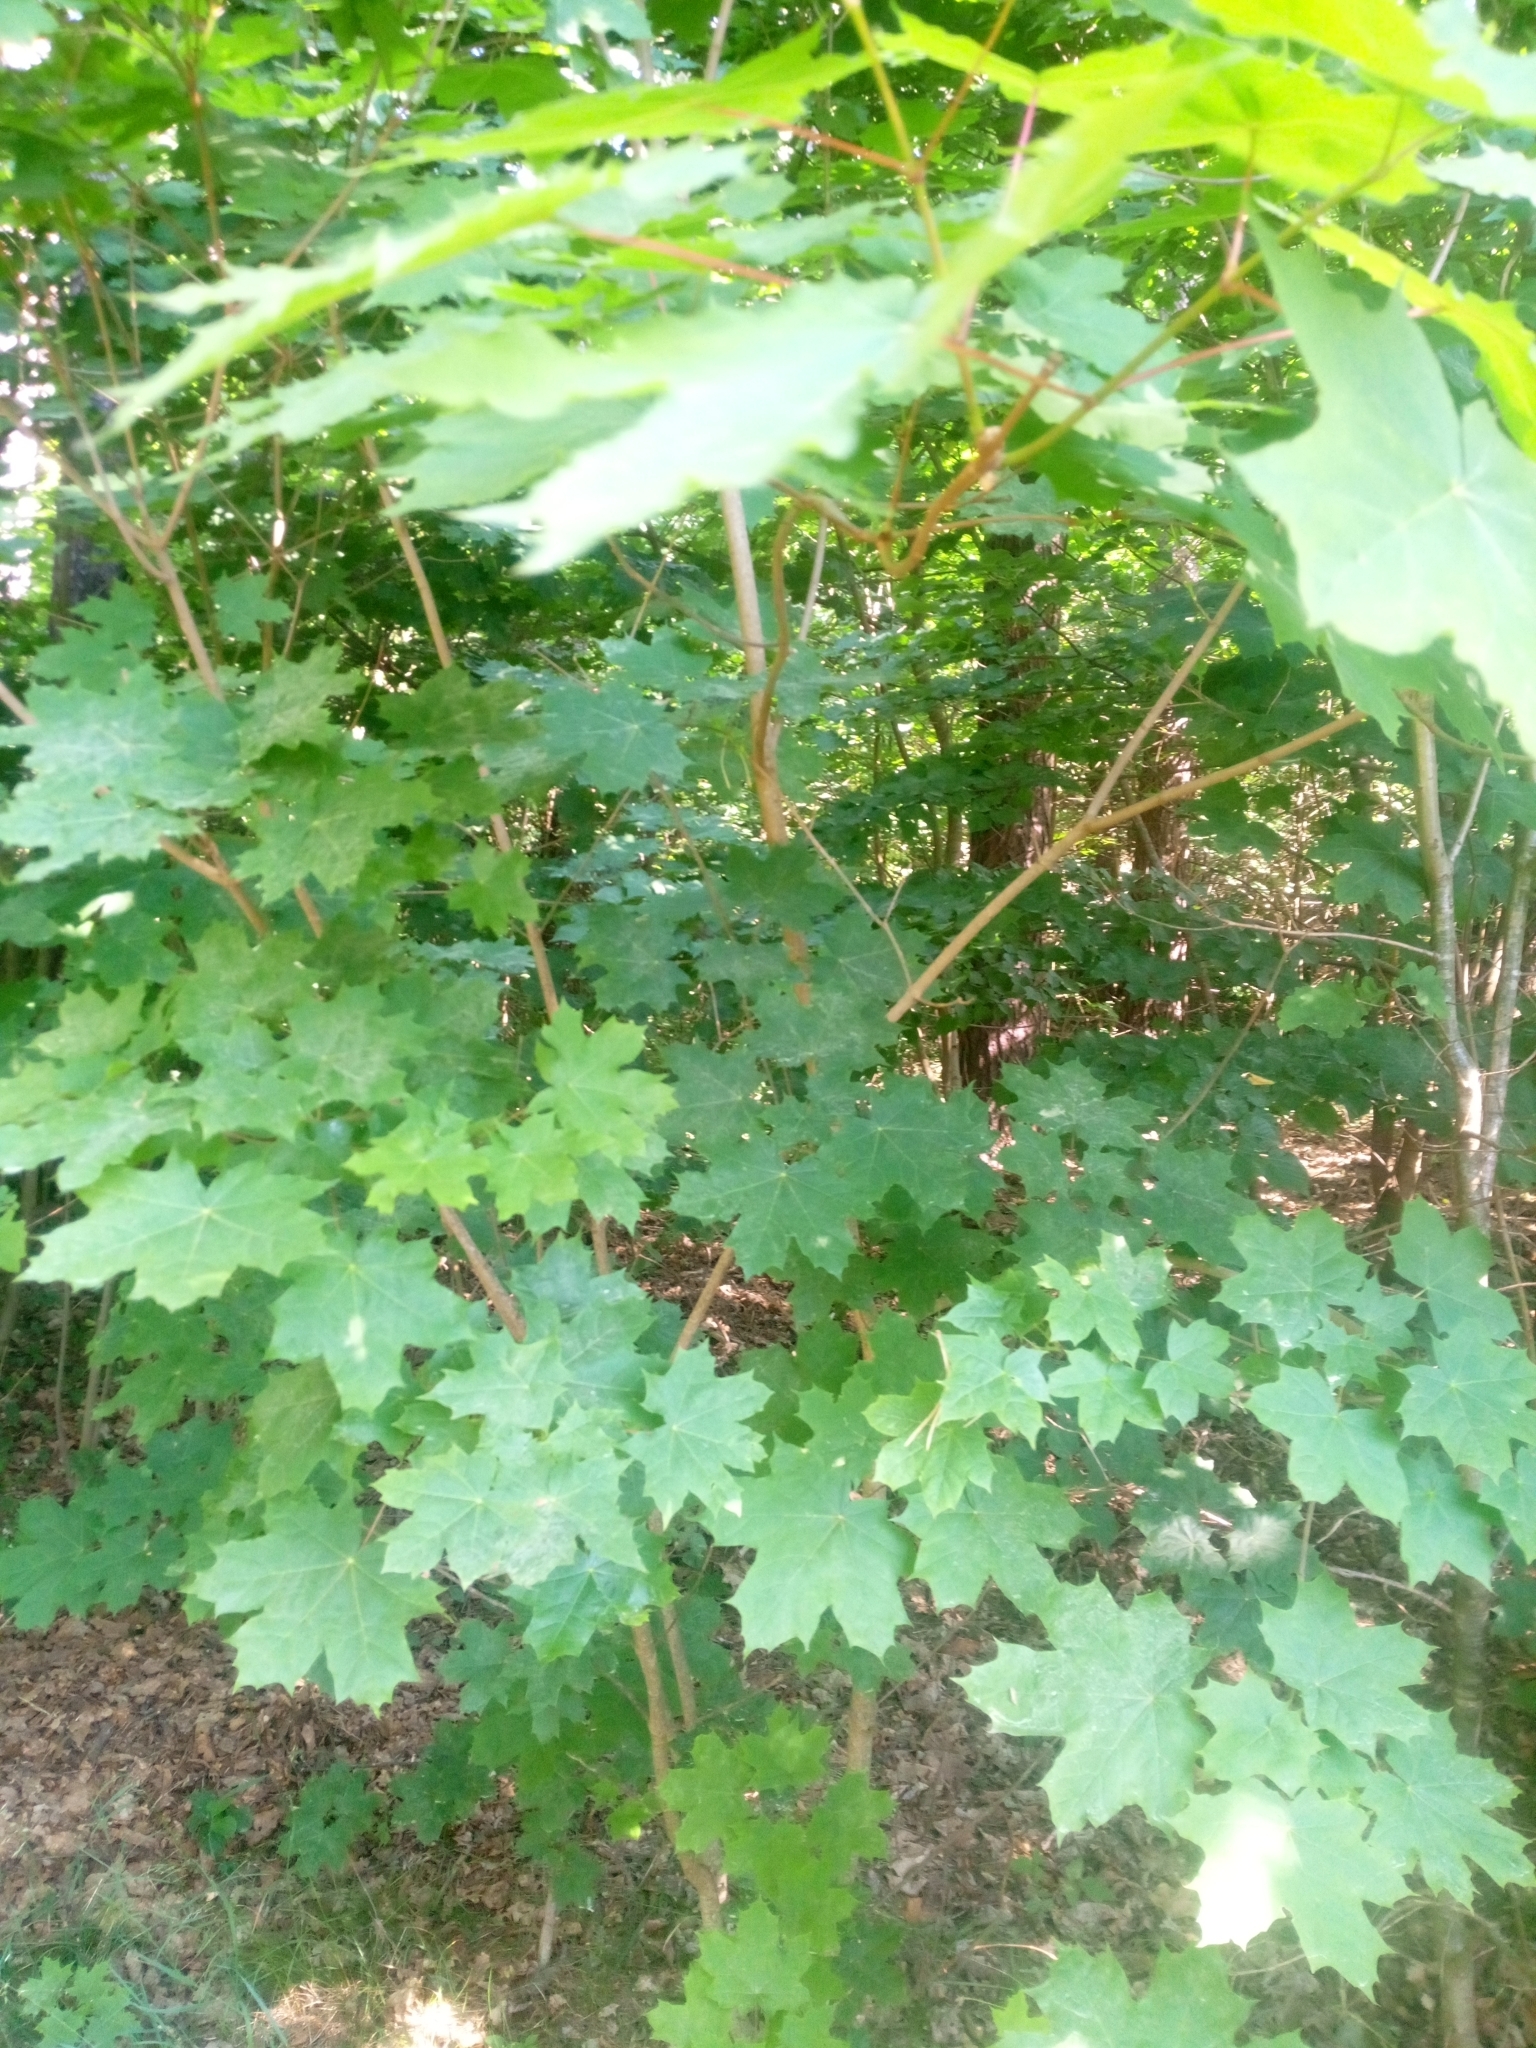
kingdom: Plantae
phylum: Tracheophyta
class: Magnoliopsida
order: Sapindales
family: Sapindaceae
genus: Acer
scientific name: Acer platanoides
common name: Norway maple
